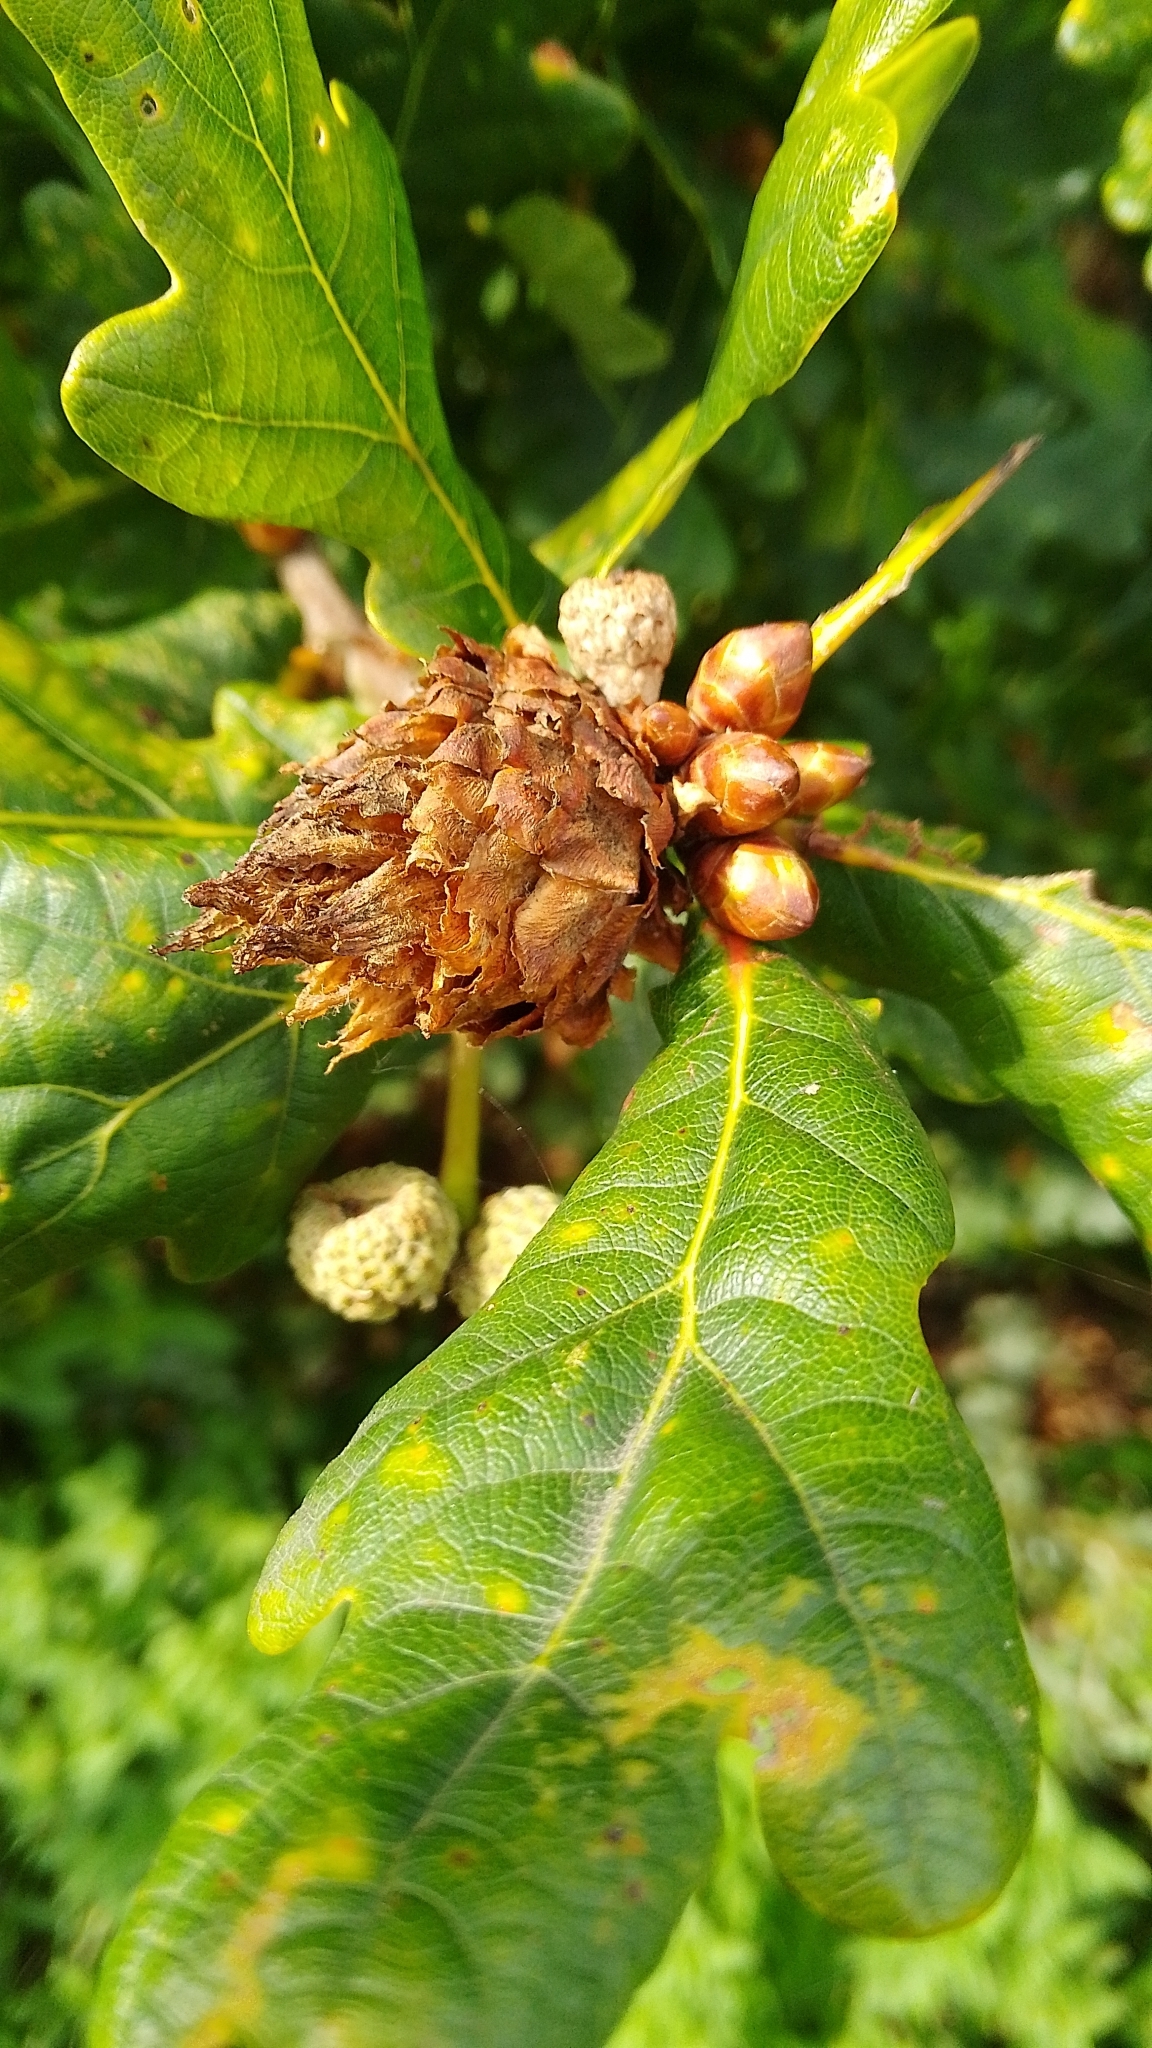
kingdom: Animalia
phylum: Arthropoda
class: Insecta
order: Hymenoptera
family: Cynipidae
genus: Andricus
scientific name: Andricus foecundatrix
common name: Artichoke gall
